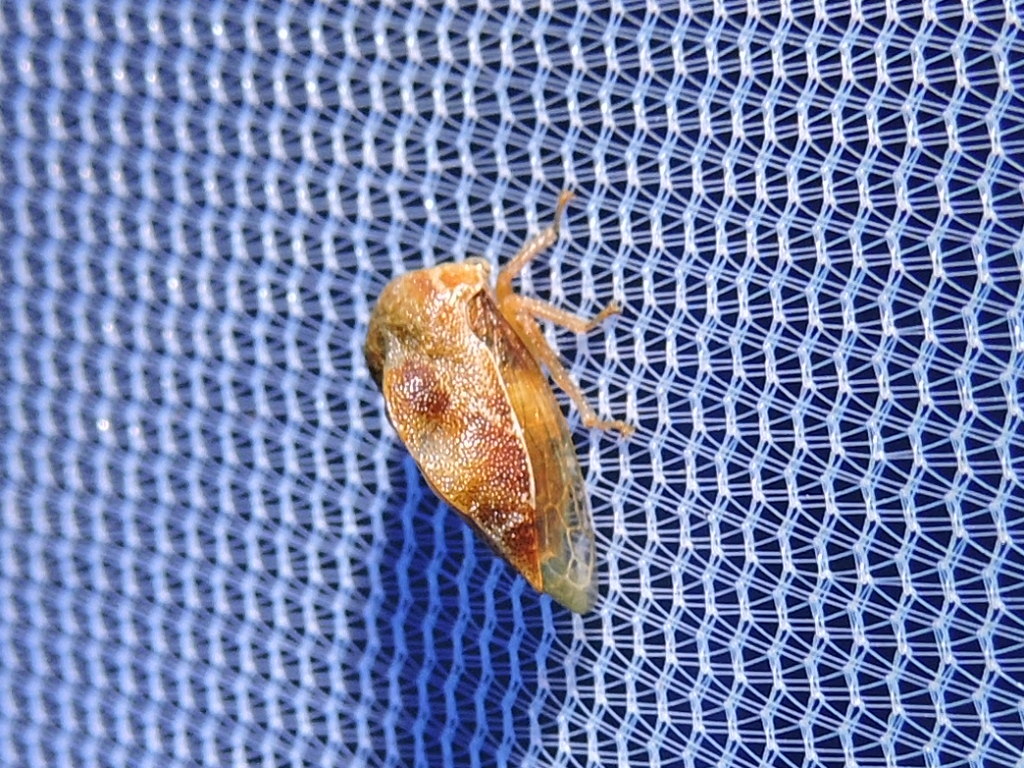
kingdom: Animalia
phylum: Arthropoda
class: Insecta
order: Hemiptera
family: Membracidae
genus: Xantholobus
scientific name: Xantholobus mutica
